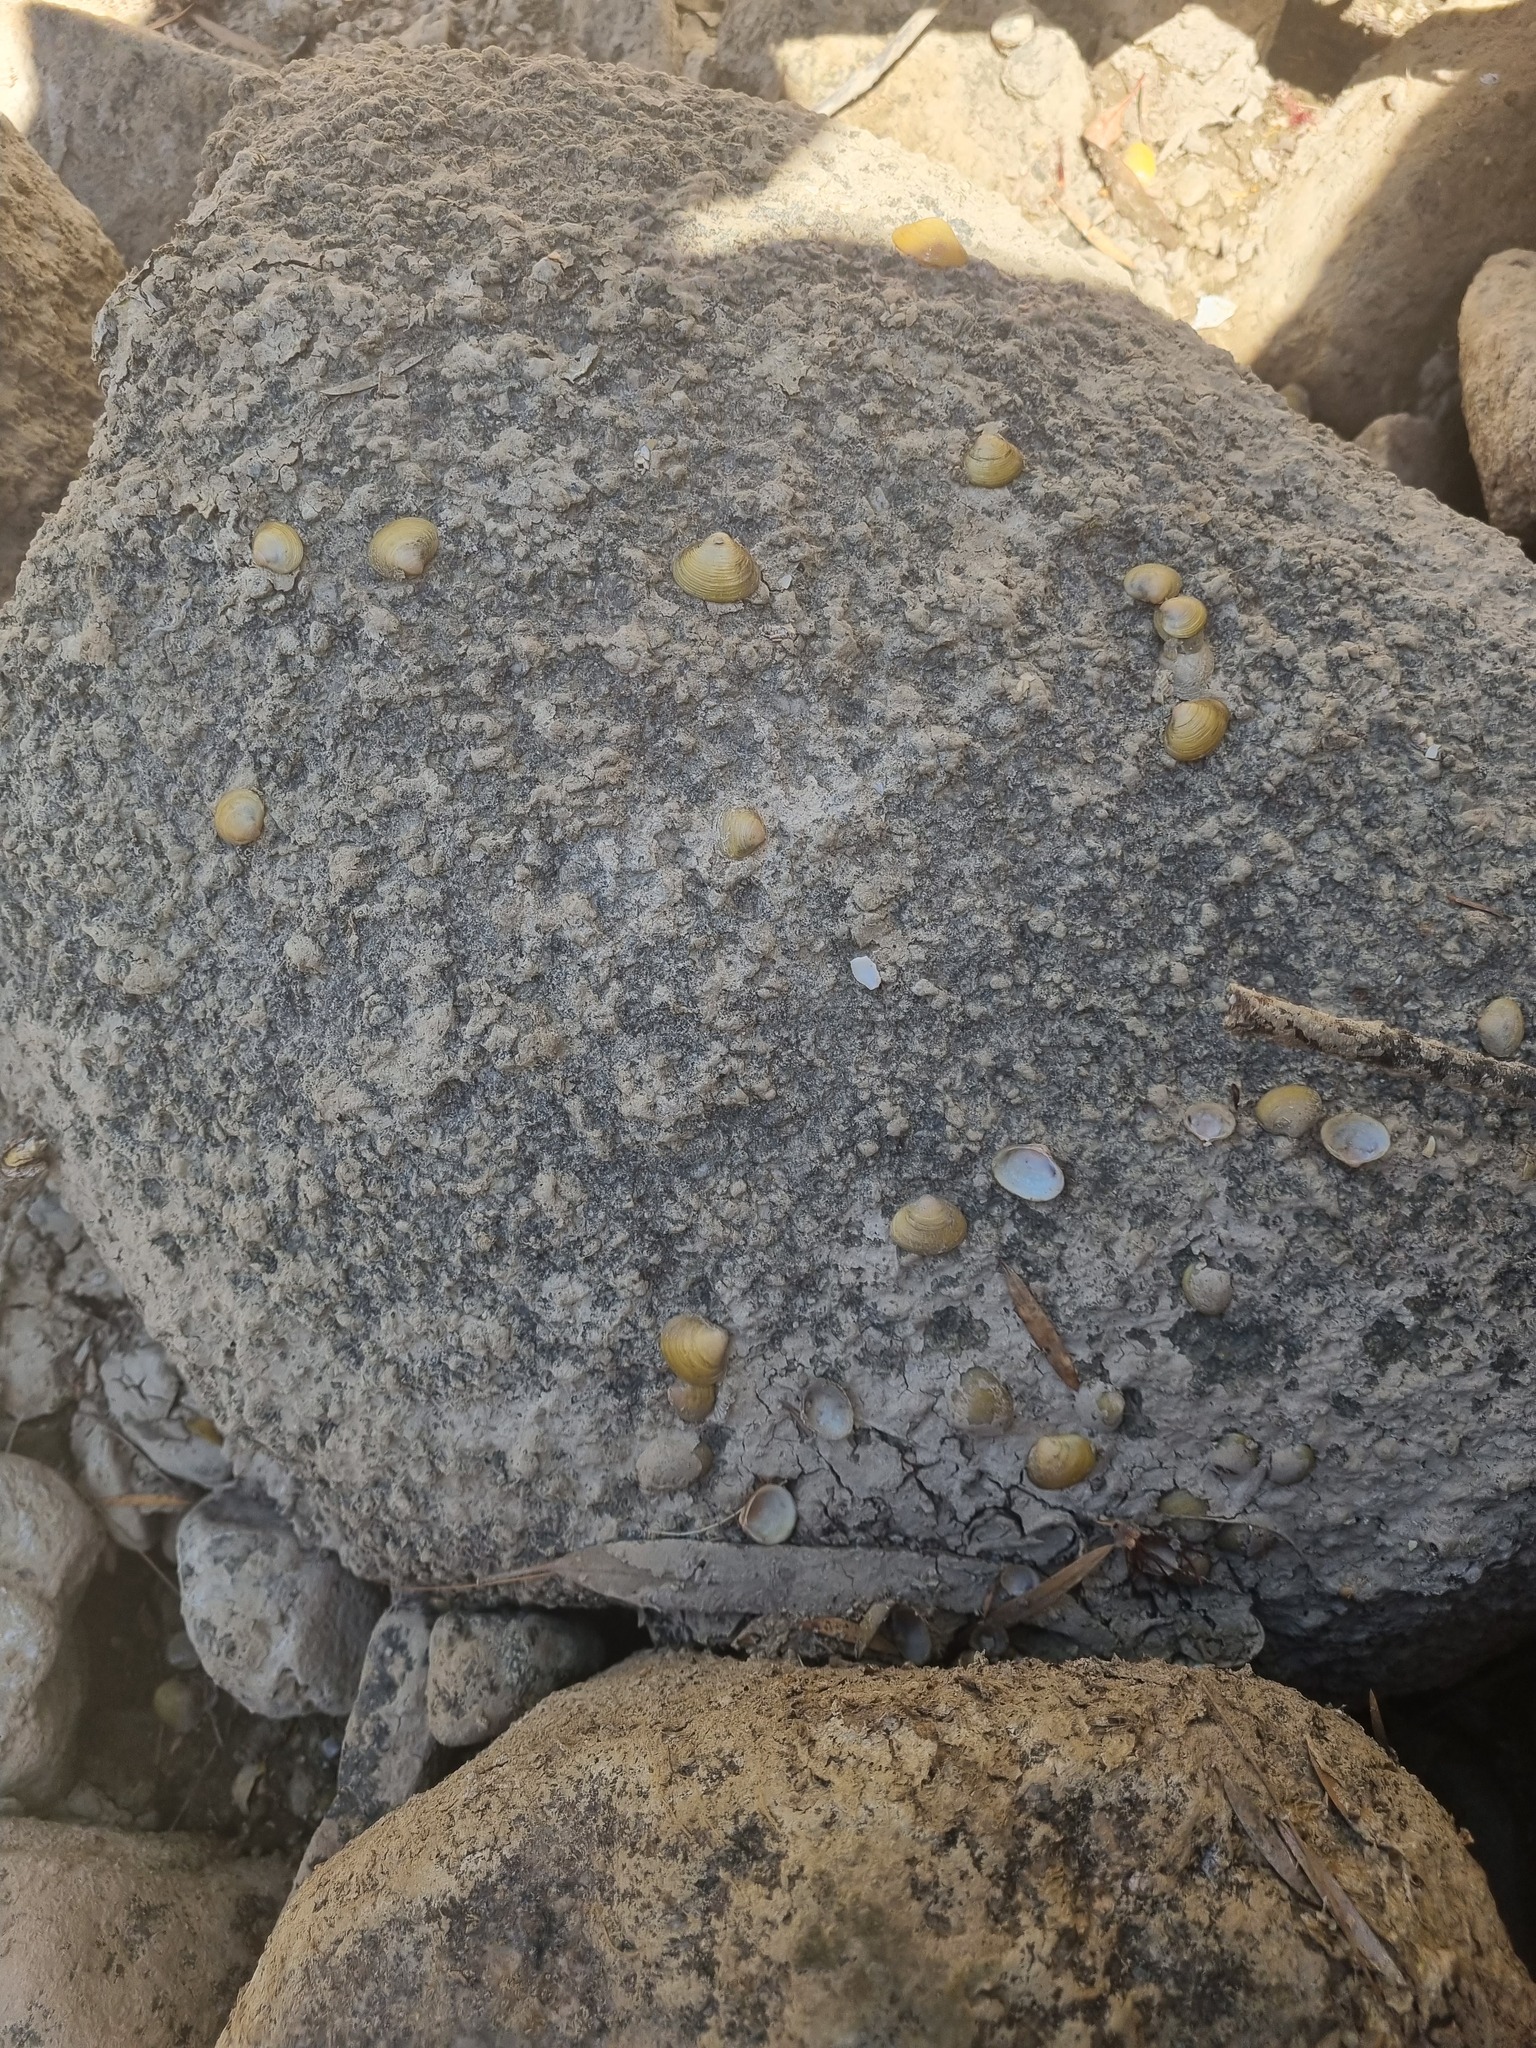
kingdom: Animalia
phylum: Mollusca
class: Bivalvia
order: Venerida
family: Cyrenidae
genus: Corbicula
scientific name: Corbicula australis
